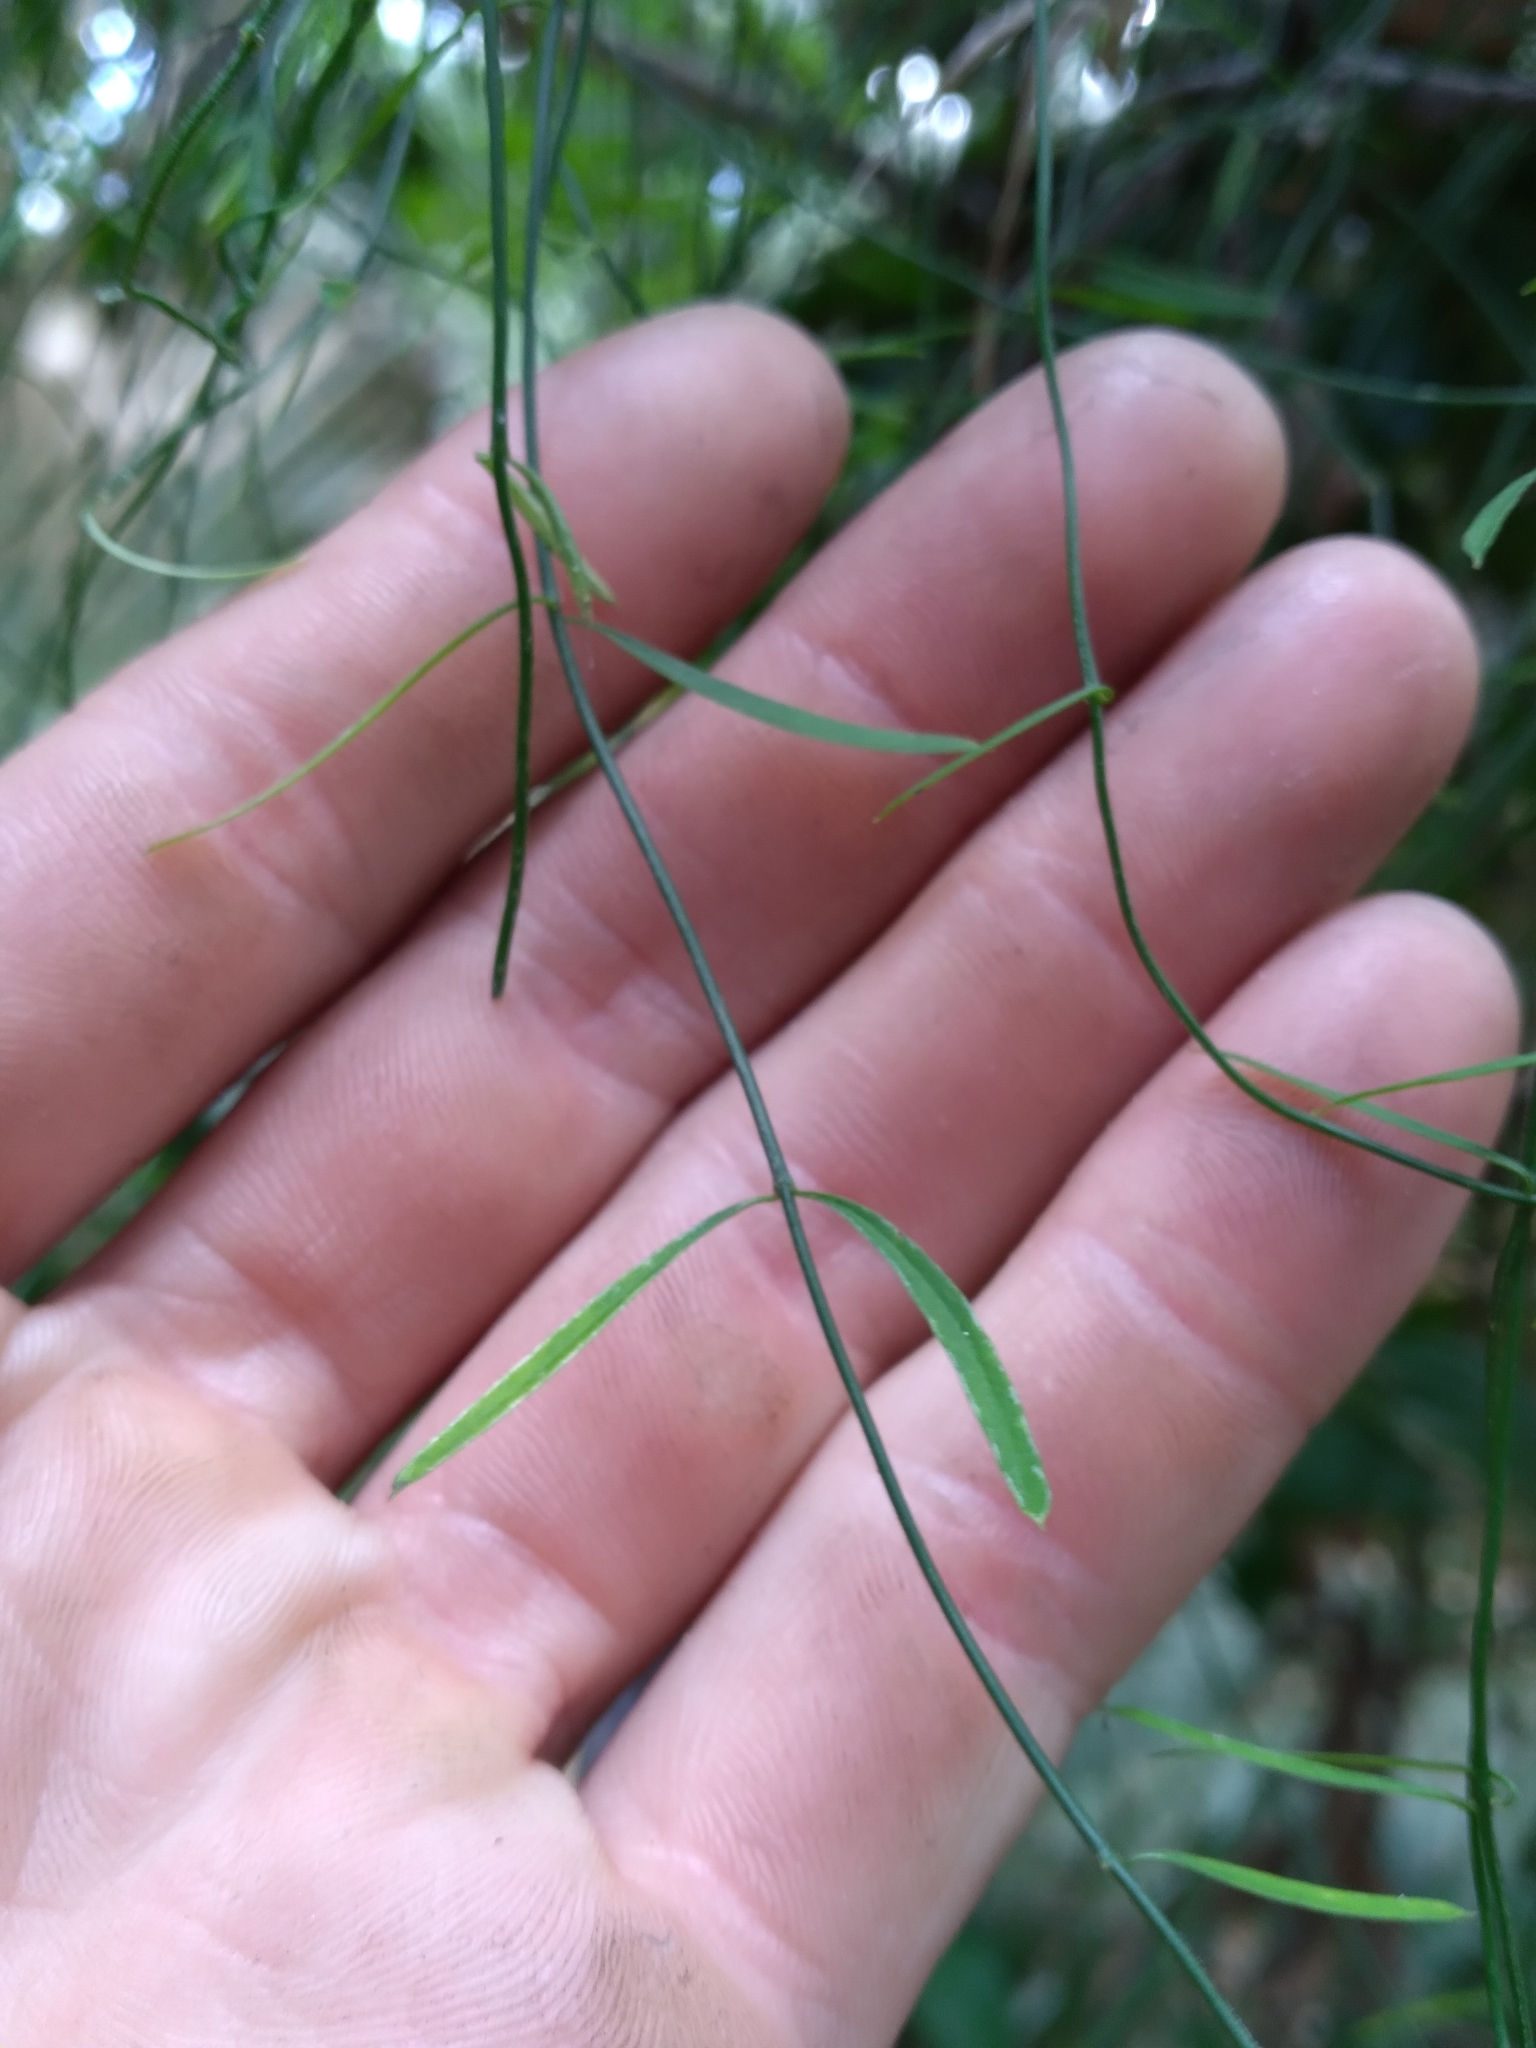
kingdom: Plantae
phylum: Tracheophyta
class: Magnoliopsida
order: Gentianales
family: Apocynaceae
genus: Orthosia
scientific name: Orthosia scoparia
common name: Leafless swallow-wort
